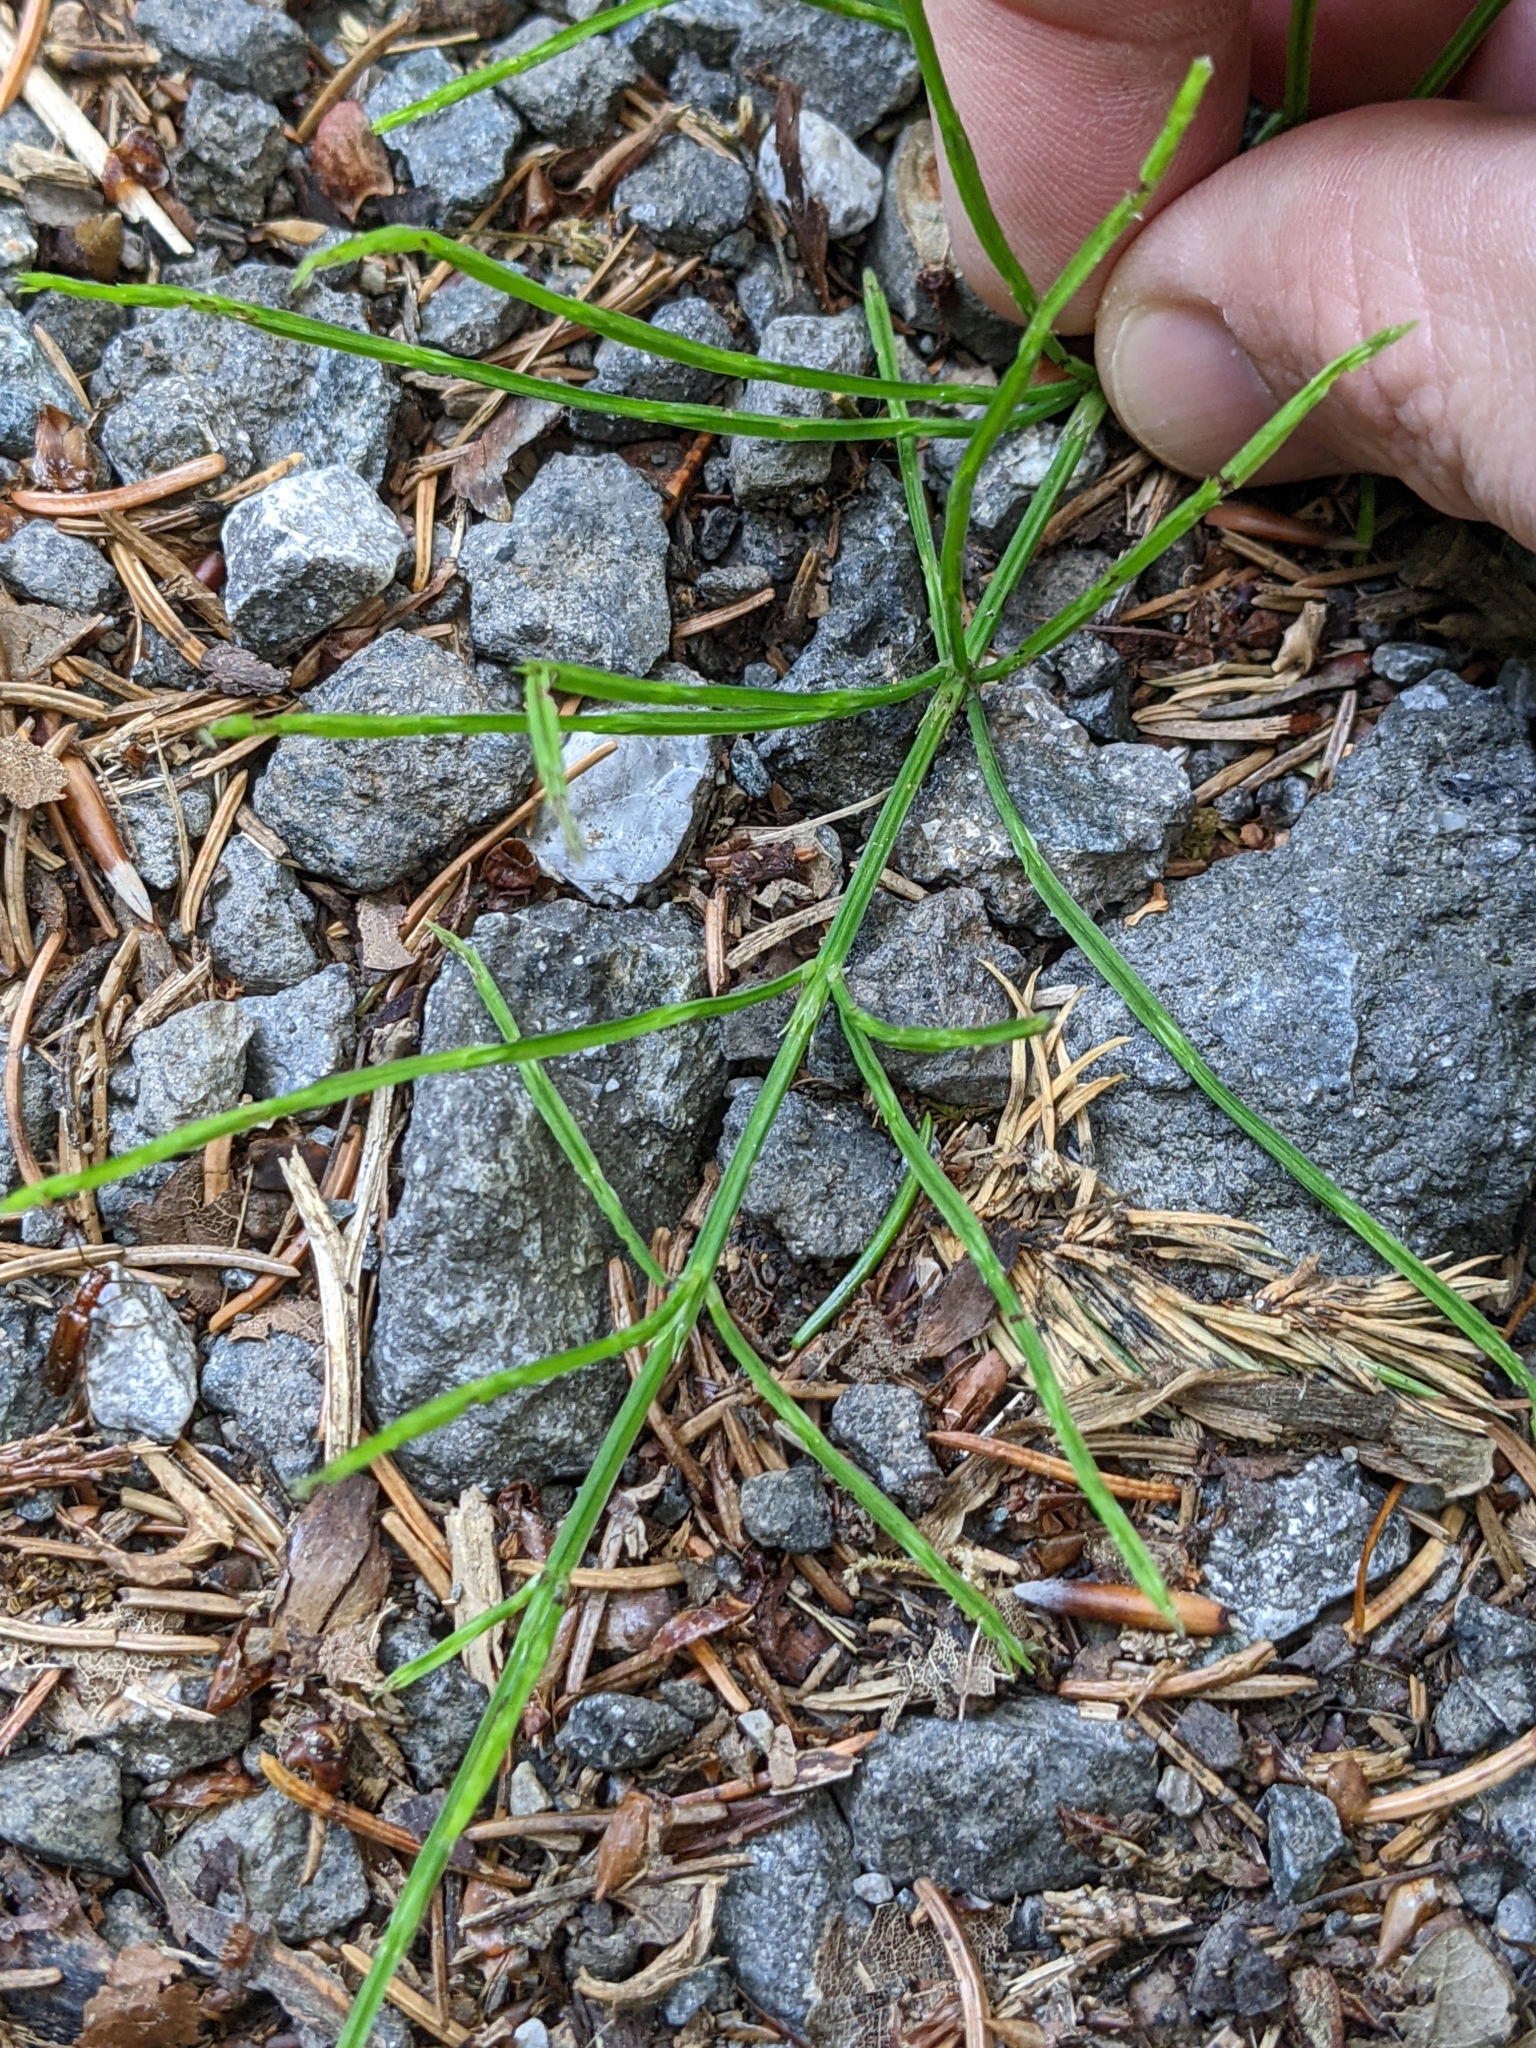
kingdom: Plantae
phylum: Tracheophyta
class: Polypodiopsida
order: Equisetales
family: Equisetaceae
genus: Equisetum
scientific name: Equisetum arvense
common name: Field horsetail
